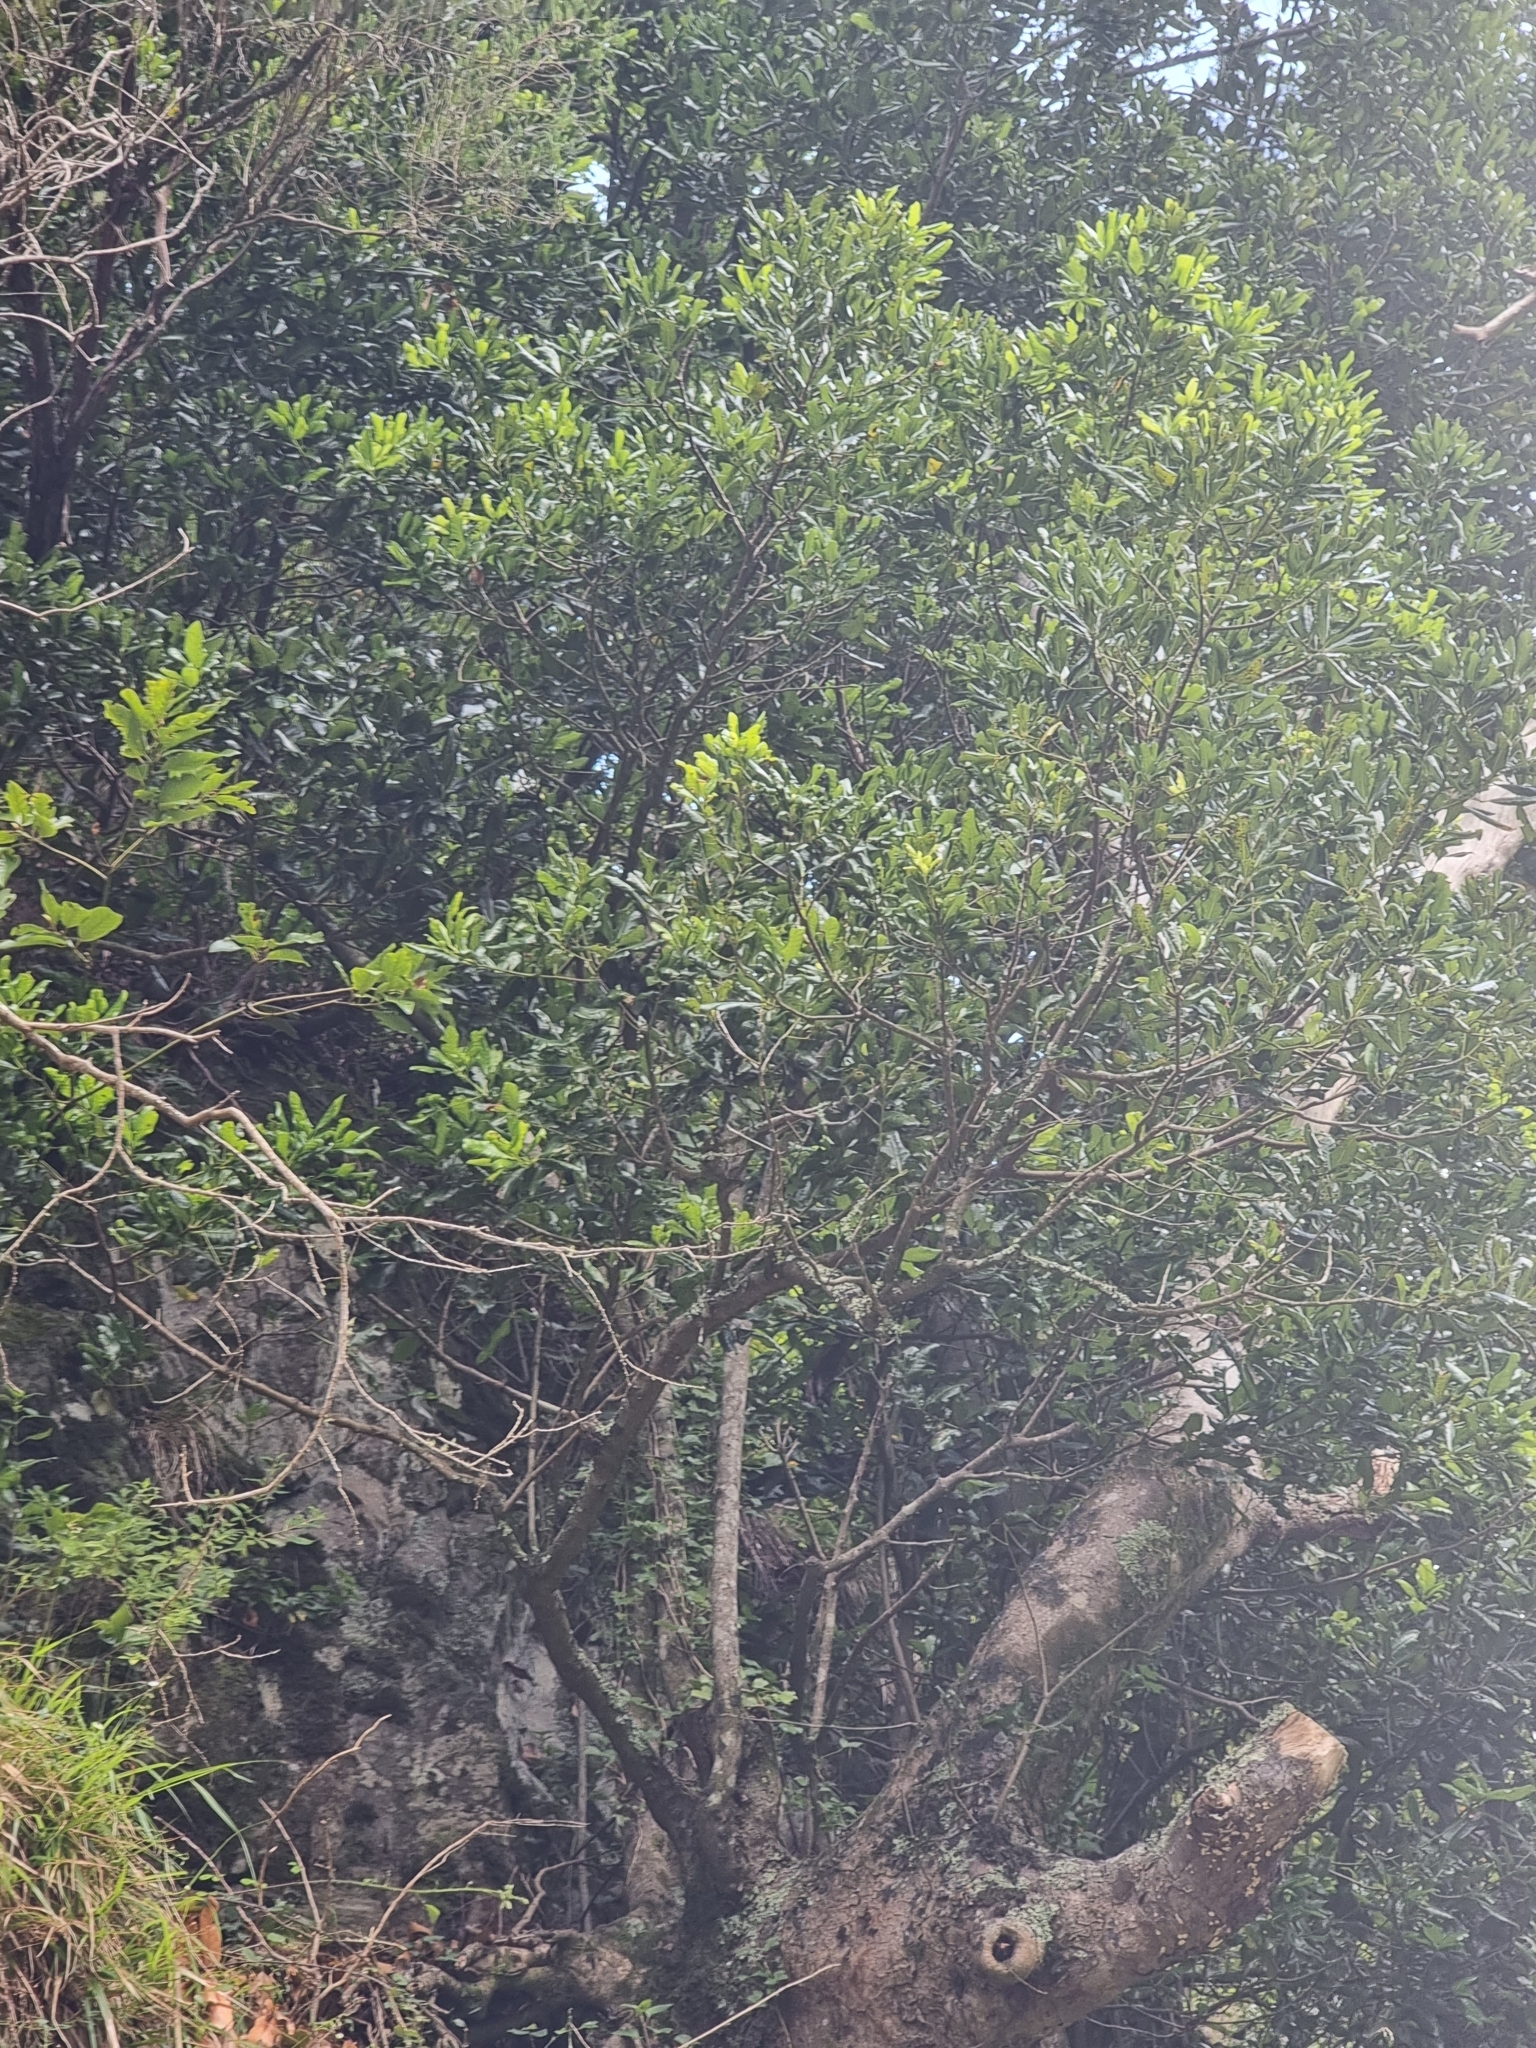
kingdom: Plantae
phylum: Tracheophyta
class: Magnoliopsida
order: Laurales
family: Lauraceae
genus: Apollonias
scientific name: Apollonias barbujana
